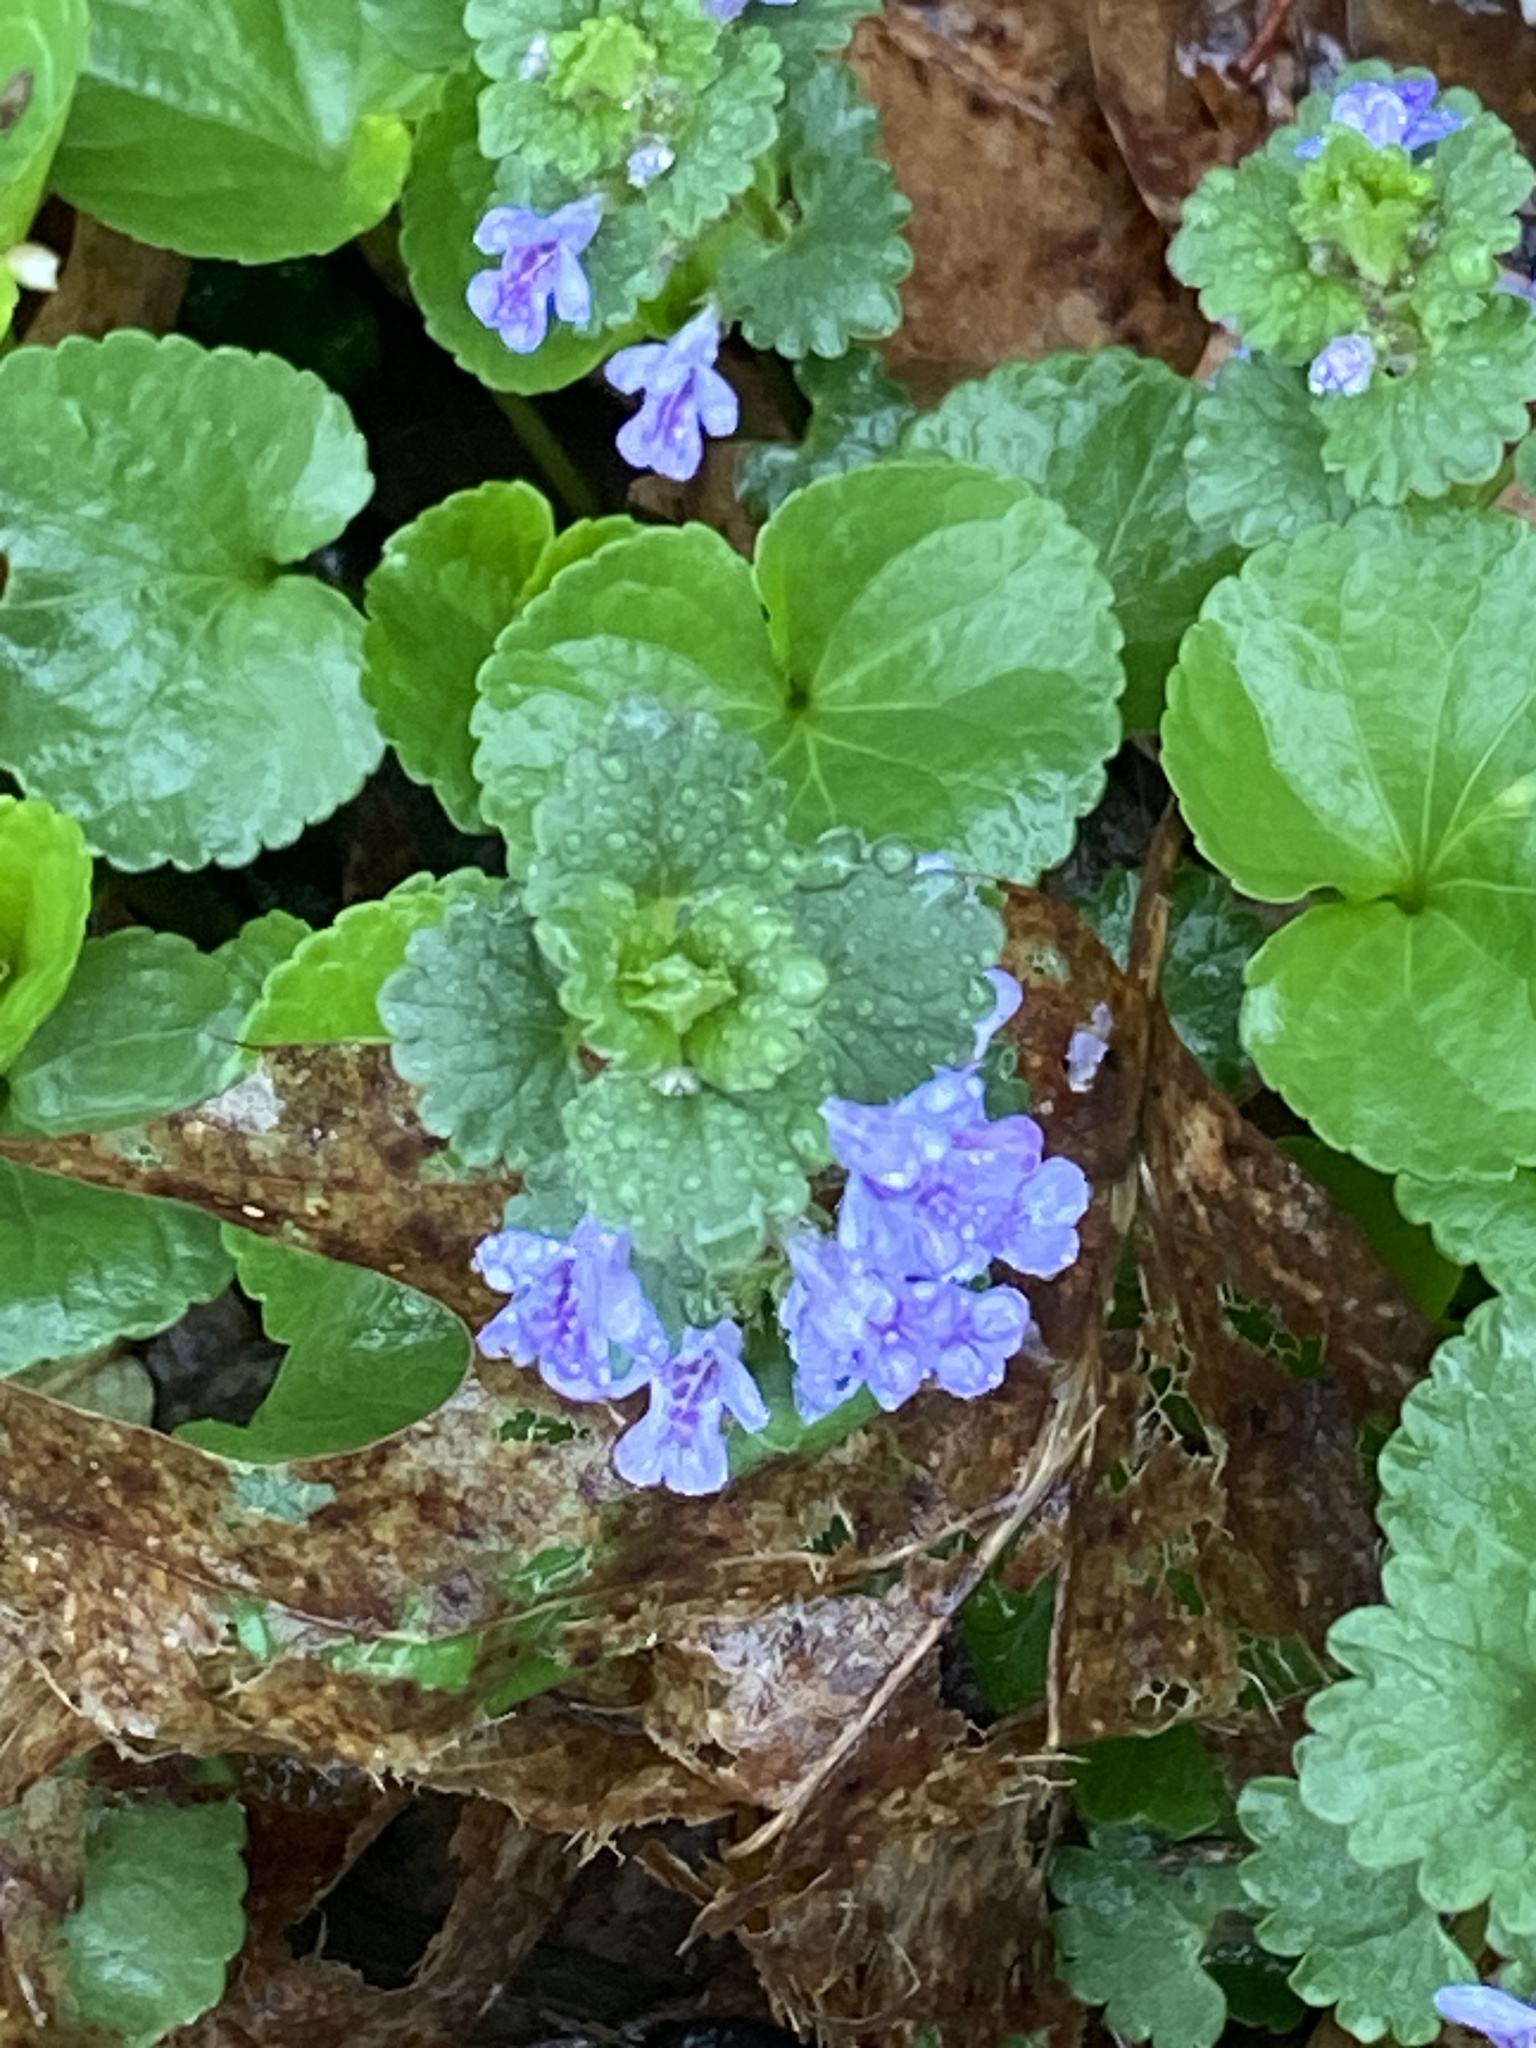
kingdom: Plantae
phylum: Tracheophyta
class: Magnoliopsida
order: Lamiales
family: Lamiaceae
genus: Glechoma
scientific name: Glechoma hederacea
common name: Ground ivy
